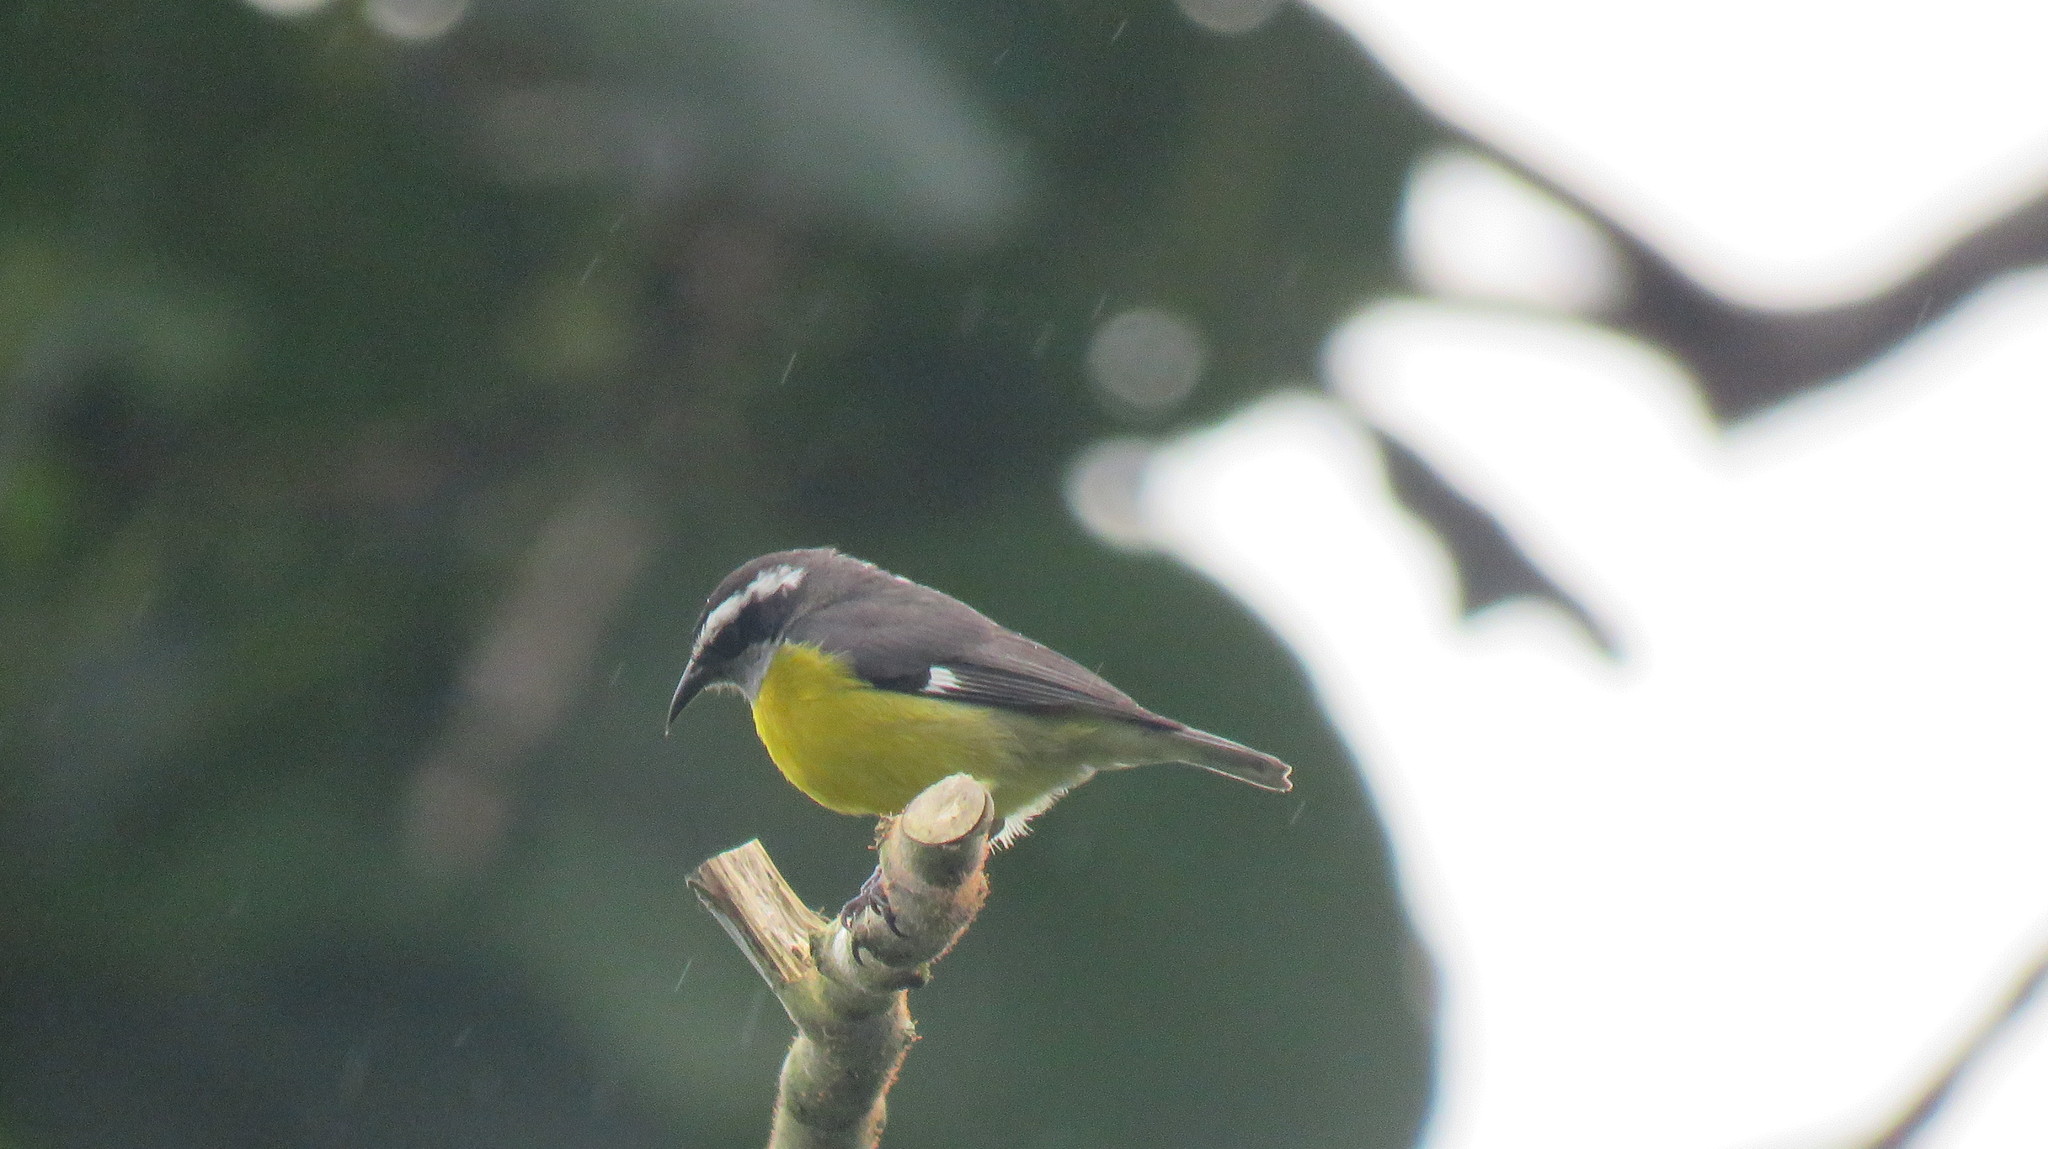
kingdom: Animalia
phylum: Chordata
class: Aves
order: Passeriformes
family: Thraupidae
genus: Coereba
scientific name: Coereba flaveola
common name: Bananaquit
